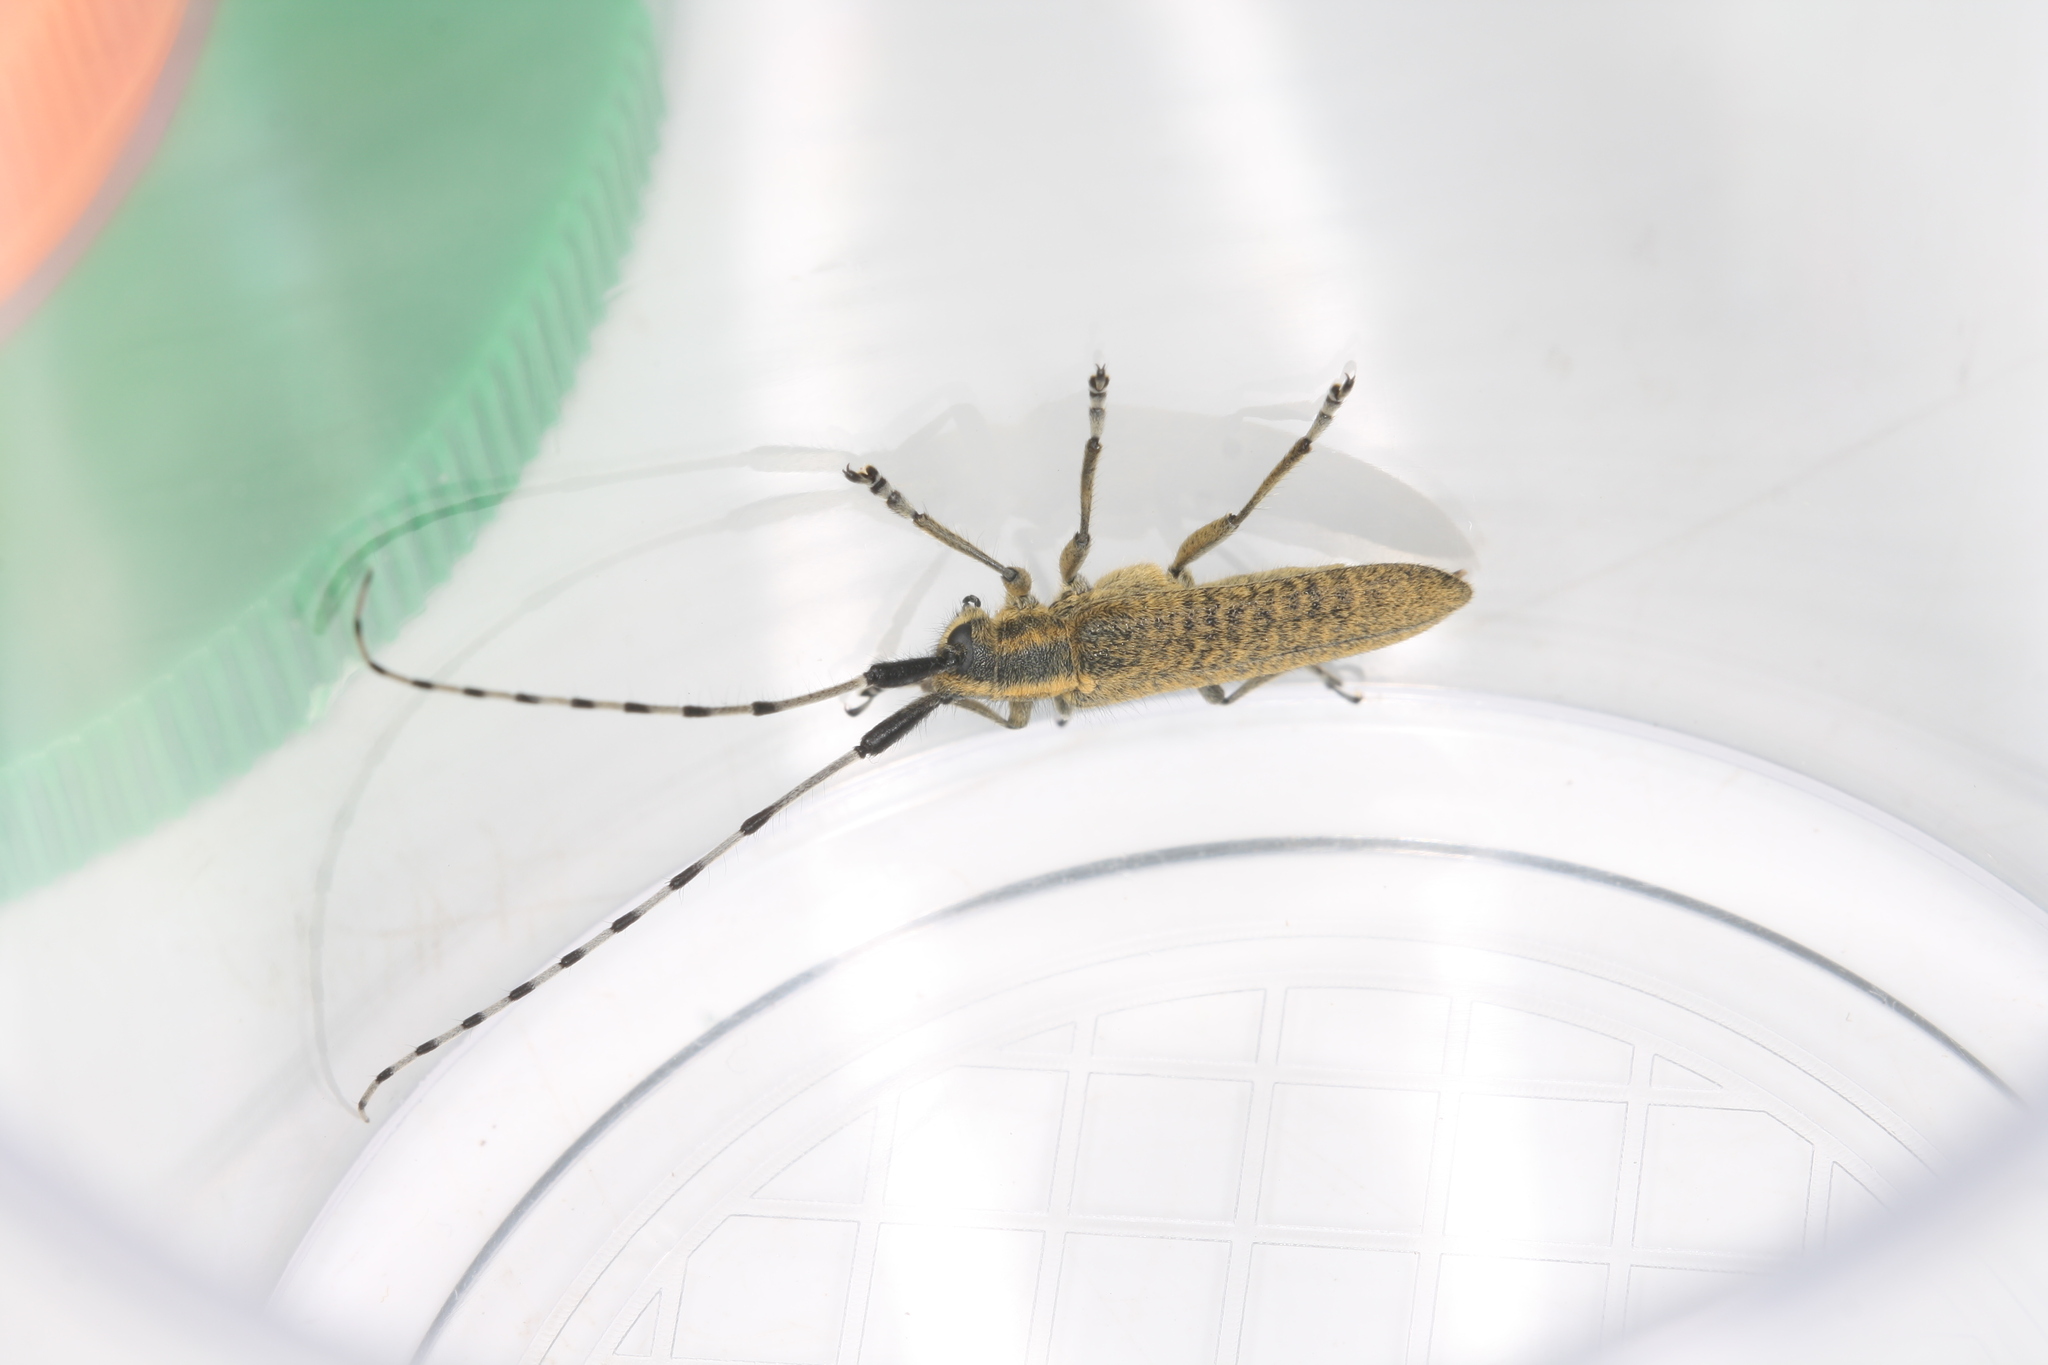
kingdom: Animalia
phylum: Arthropoda
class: Insecta
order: Coleoptera
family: Cerambycidae
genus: Agapanthia
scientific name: Agapanthia villosoviridescens
